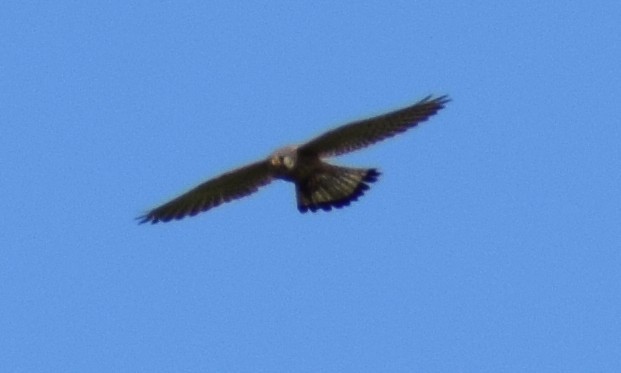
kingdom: Animalia
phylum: Chordata
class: Aves
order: Falconiformes
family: Falconidae
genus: Falco
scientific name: Falco tinnunculus
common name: Common kestrel
